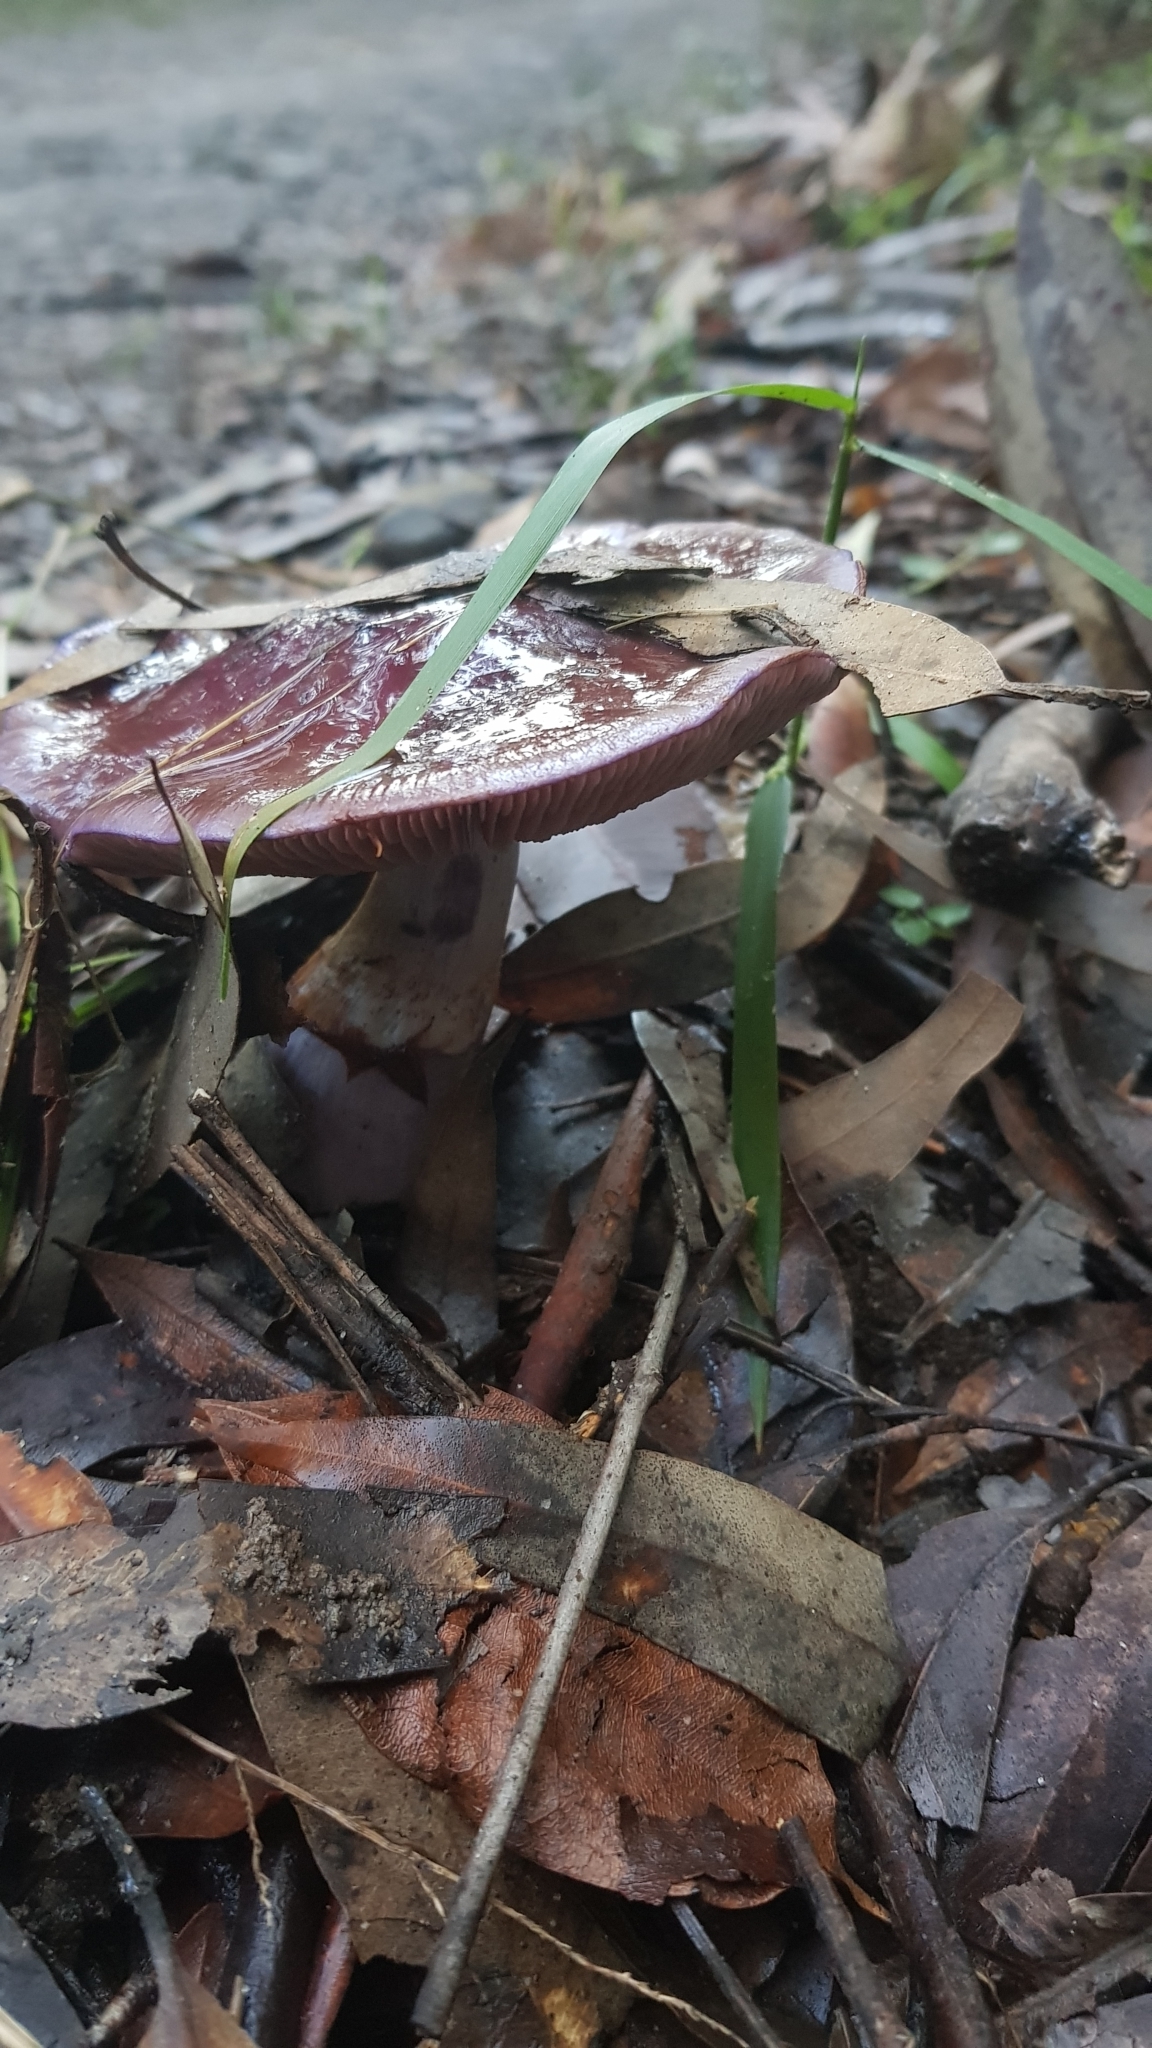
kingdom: Fungi
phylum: Basidiomycota
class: Agaricomycetes
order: Agaricales
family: Cortinariaceae
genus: Cortinarius
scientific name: Cortinarius archeri
